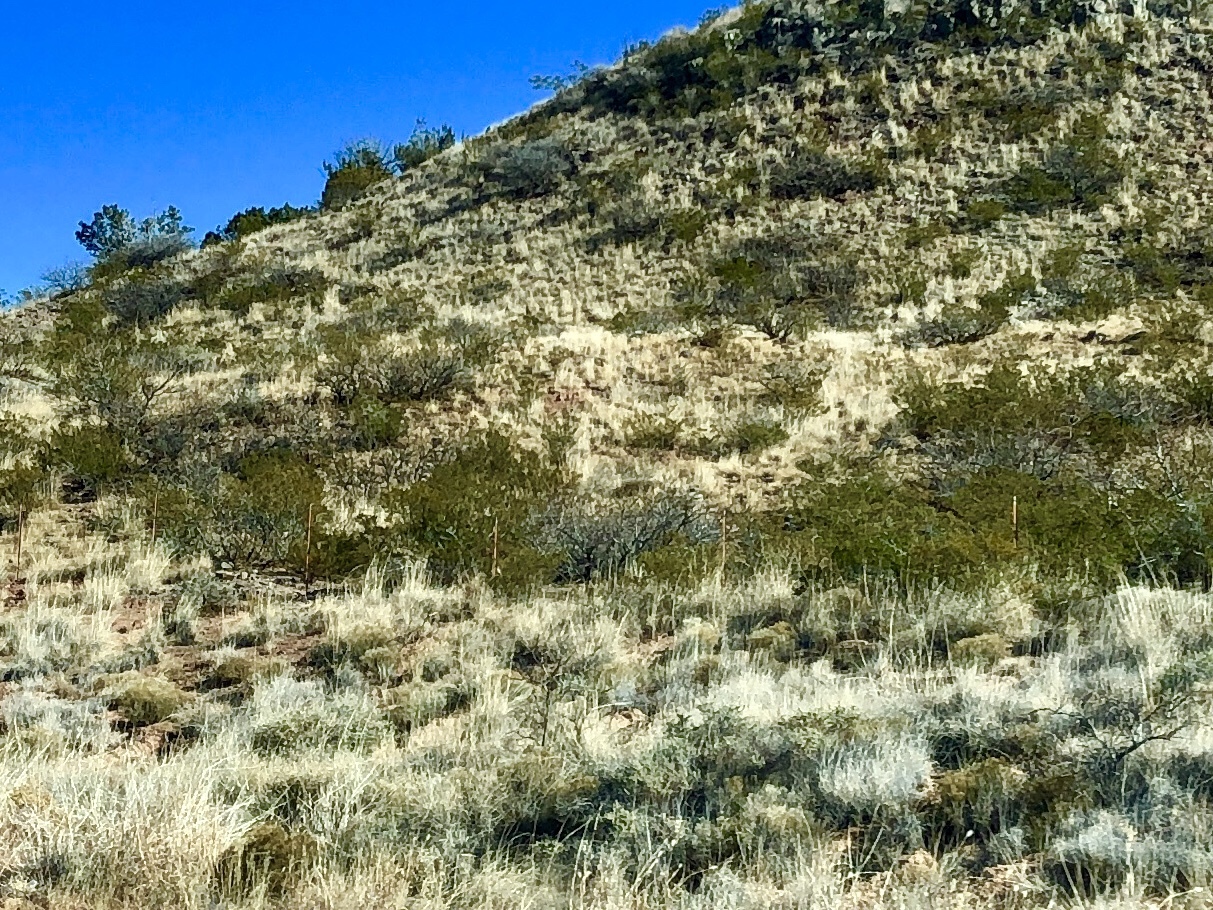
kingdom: Plantae
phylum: Tracheophyta
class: Magnoliopsida
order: Zygophyllales
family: Zygophyllaceae
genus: Larrea
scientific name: Larrea tridentata
